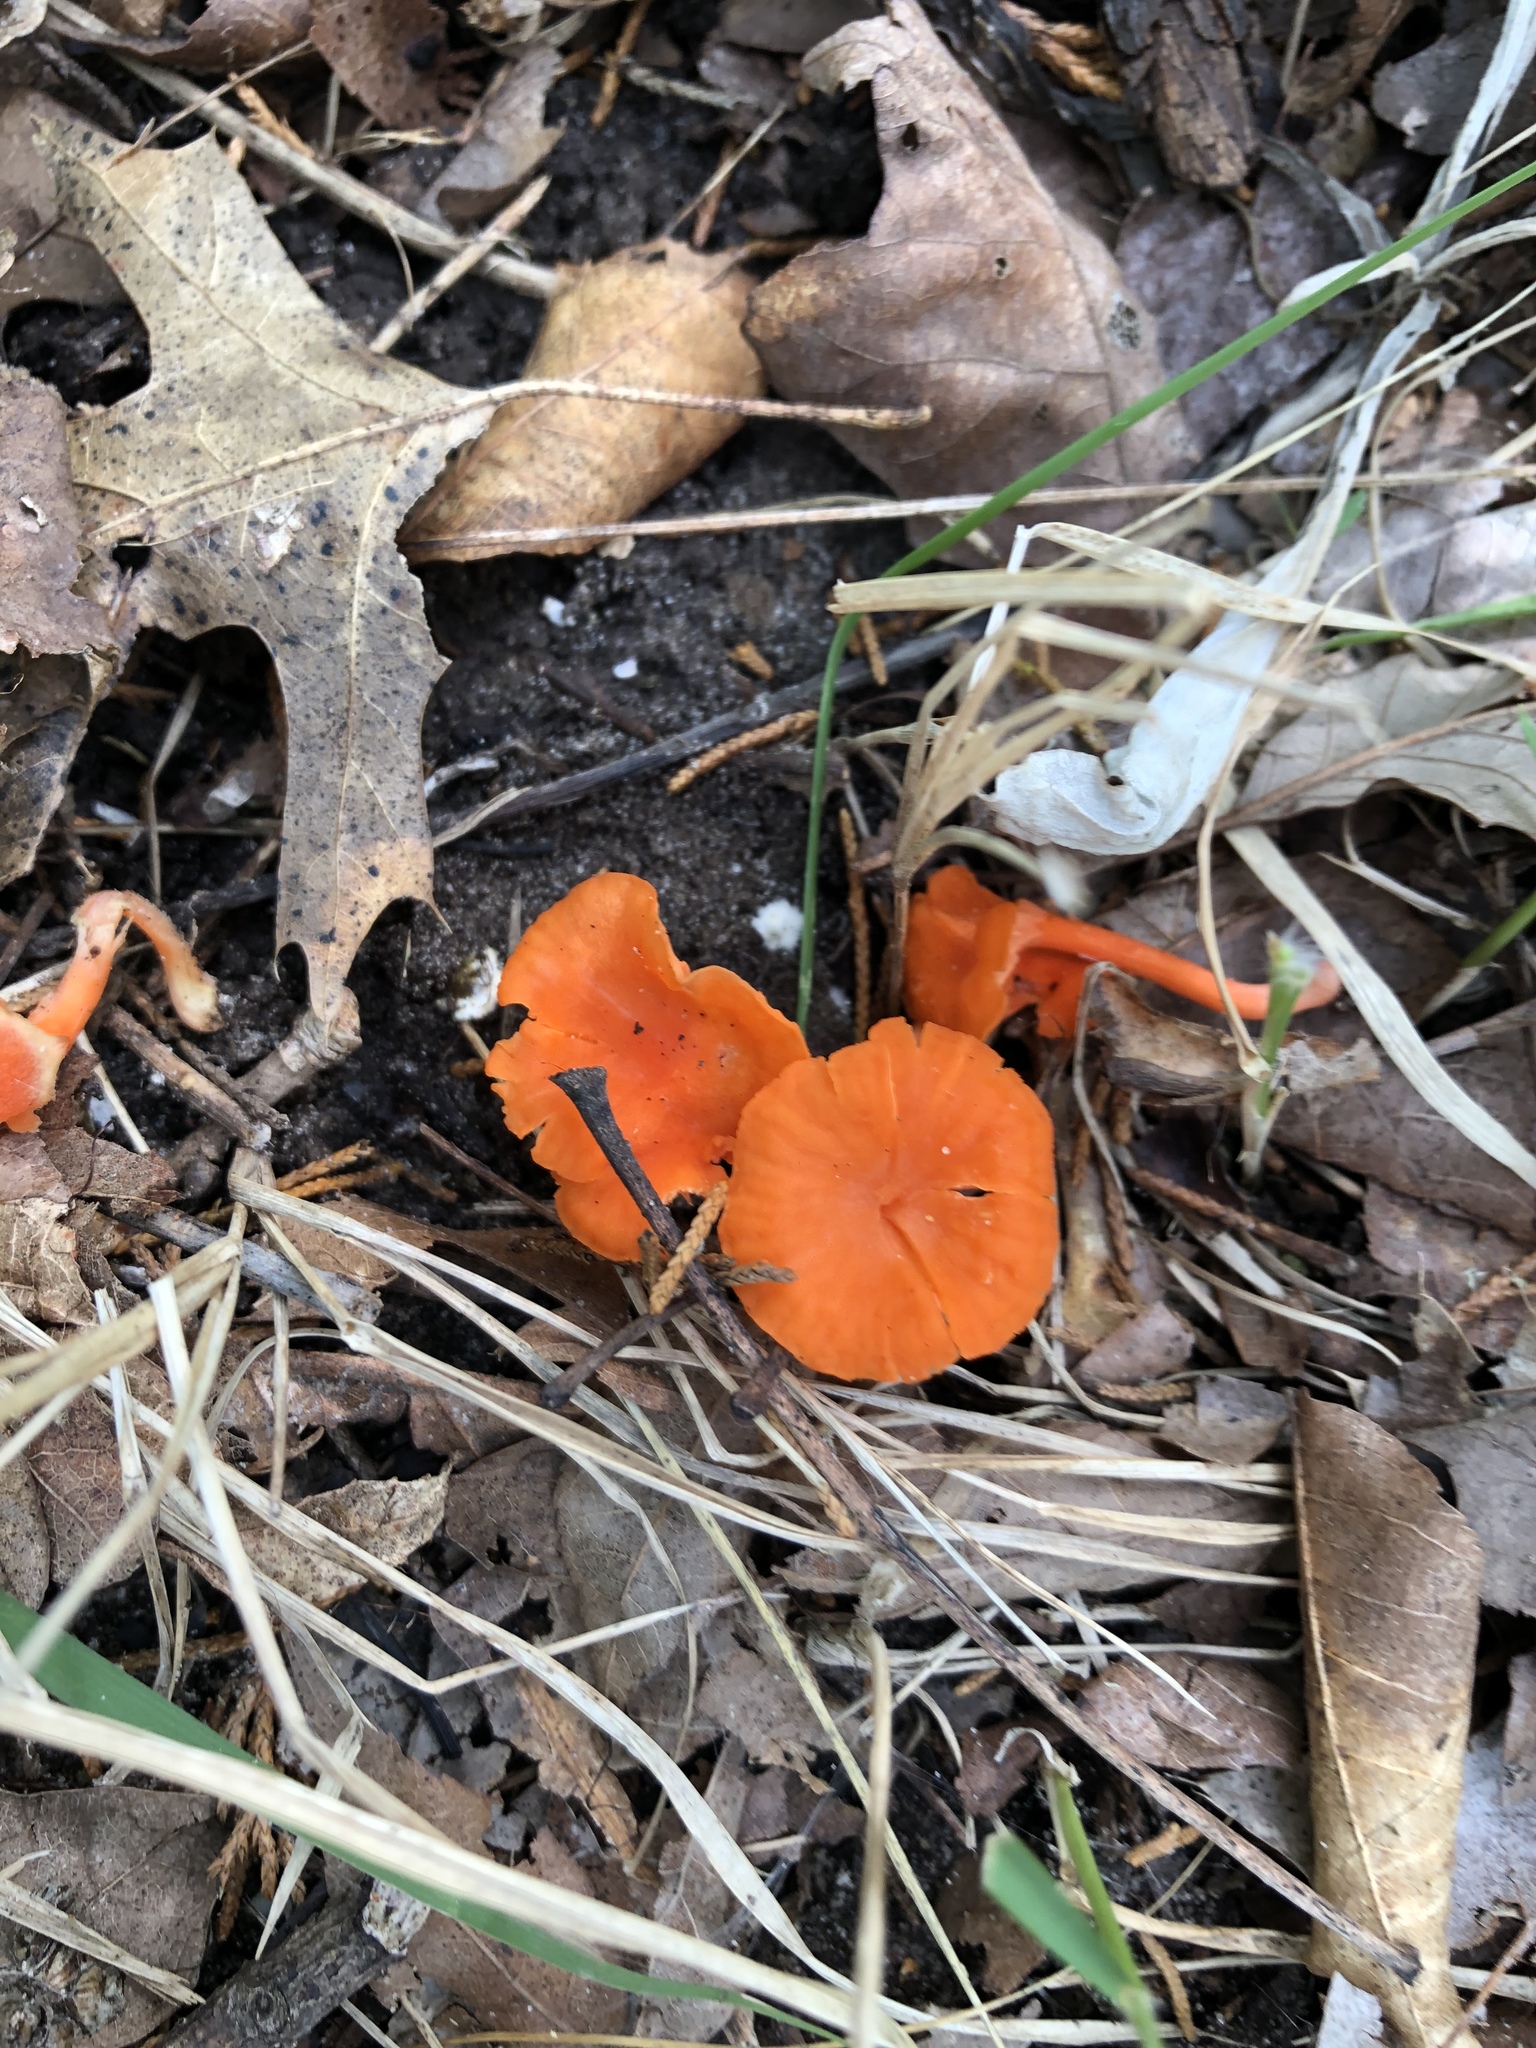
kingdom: Fungi
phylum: Basidiomycota
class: Agaricomycetes
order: Cantharellales
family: Hydnaceae
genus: Cantharellus
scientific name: Cantharellus cinnabarinus
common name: Cinnabar chanterelle
